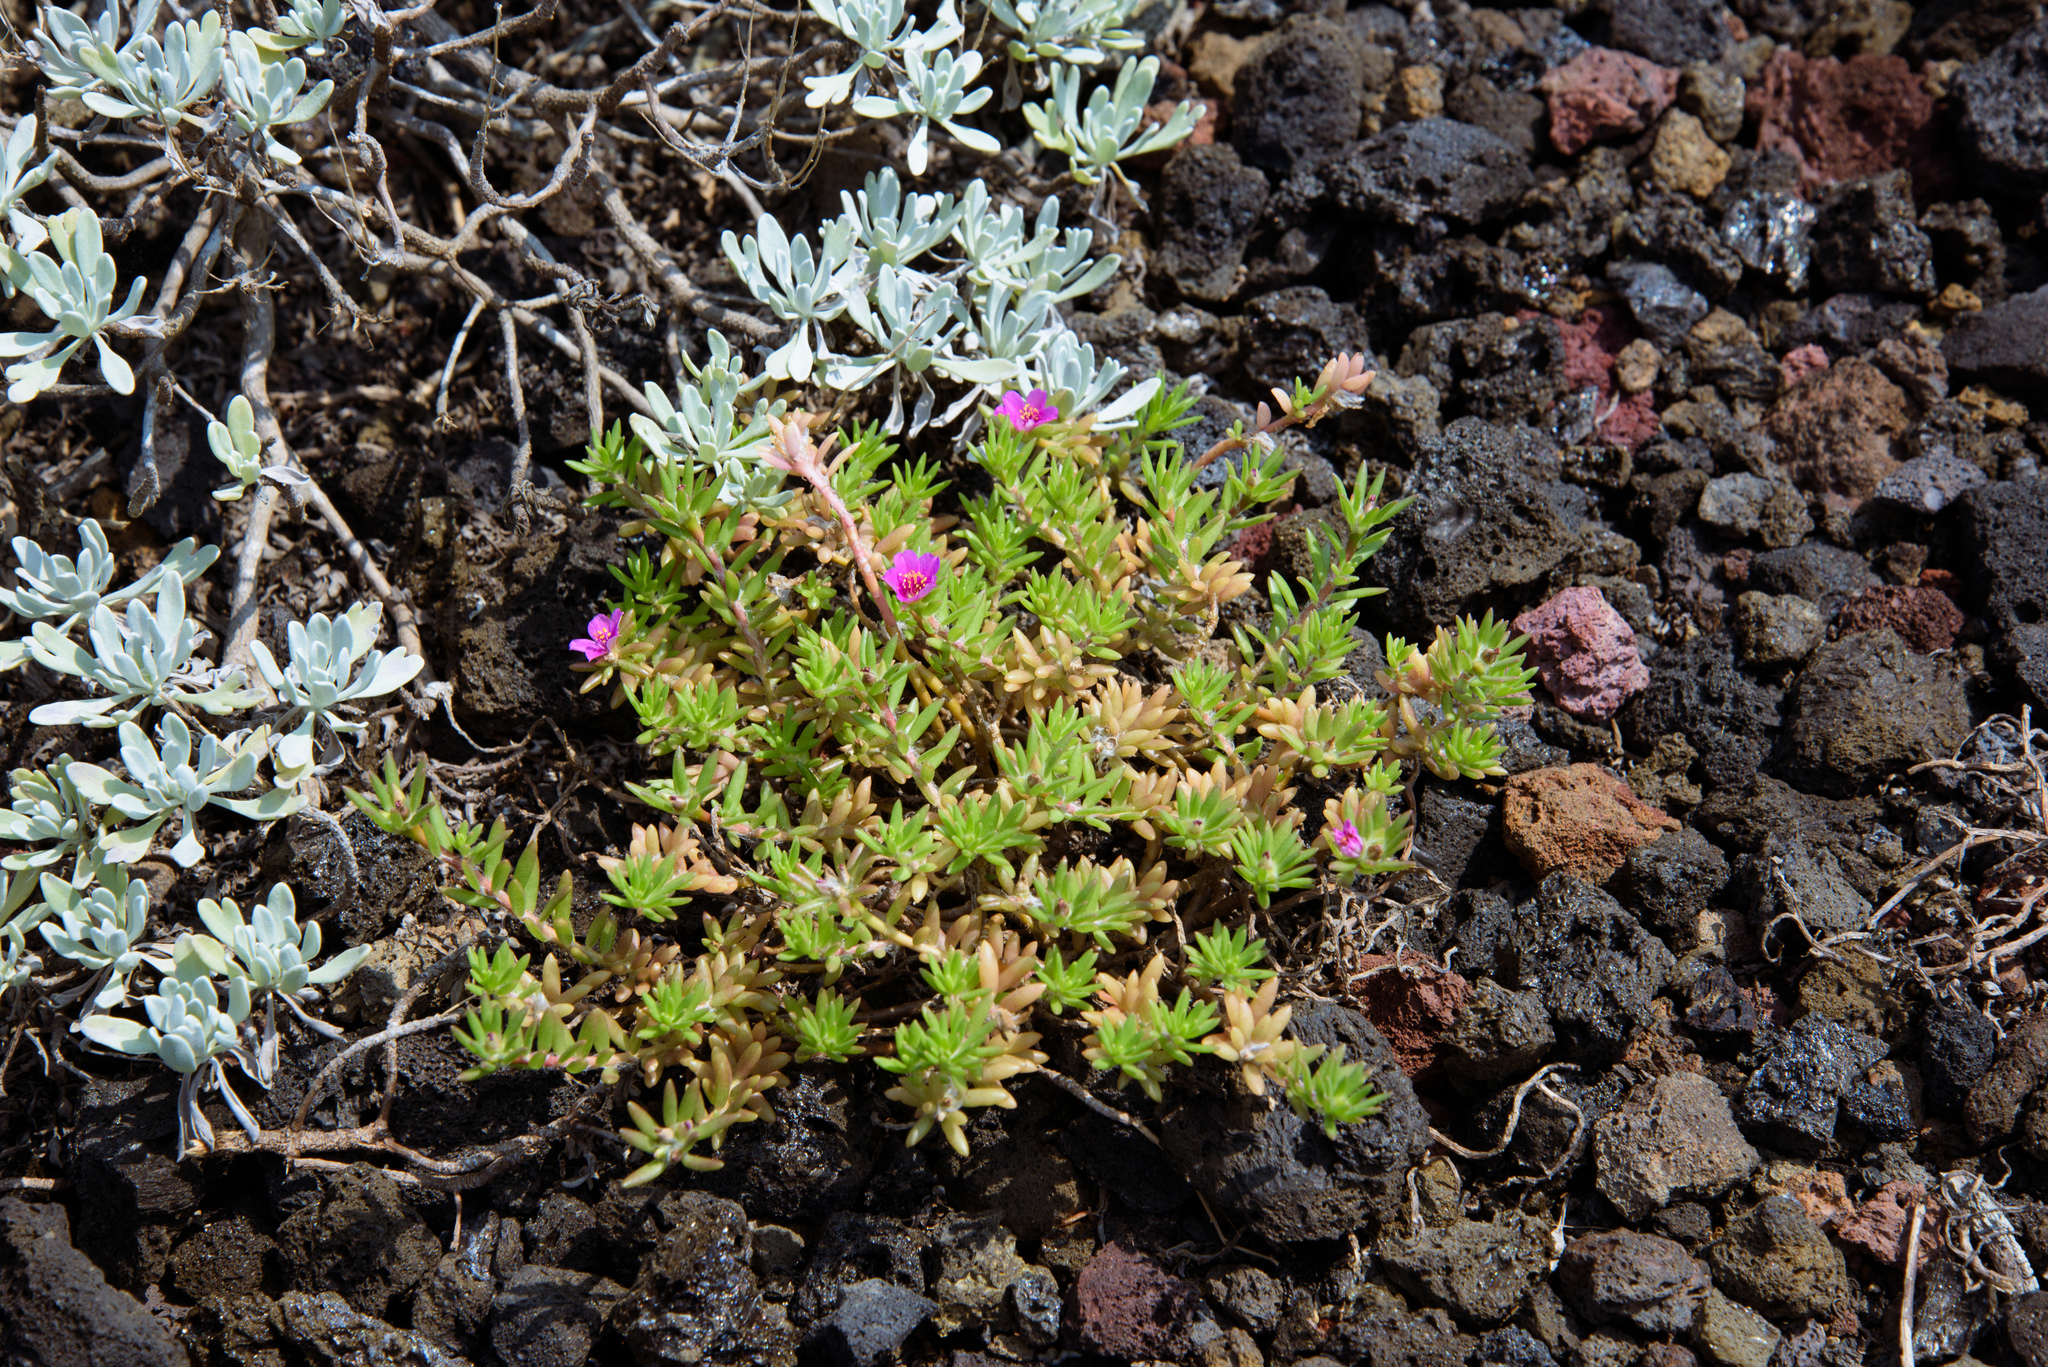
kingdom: Plantae
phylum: Tracheophyta
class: Magnoliopsida
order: Caryophyllales
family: Portulacaceae
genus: Portulaca
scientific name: Portulaca pilosa
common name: Kiss me quick
